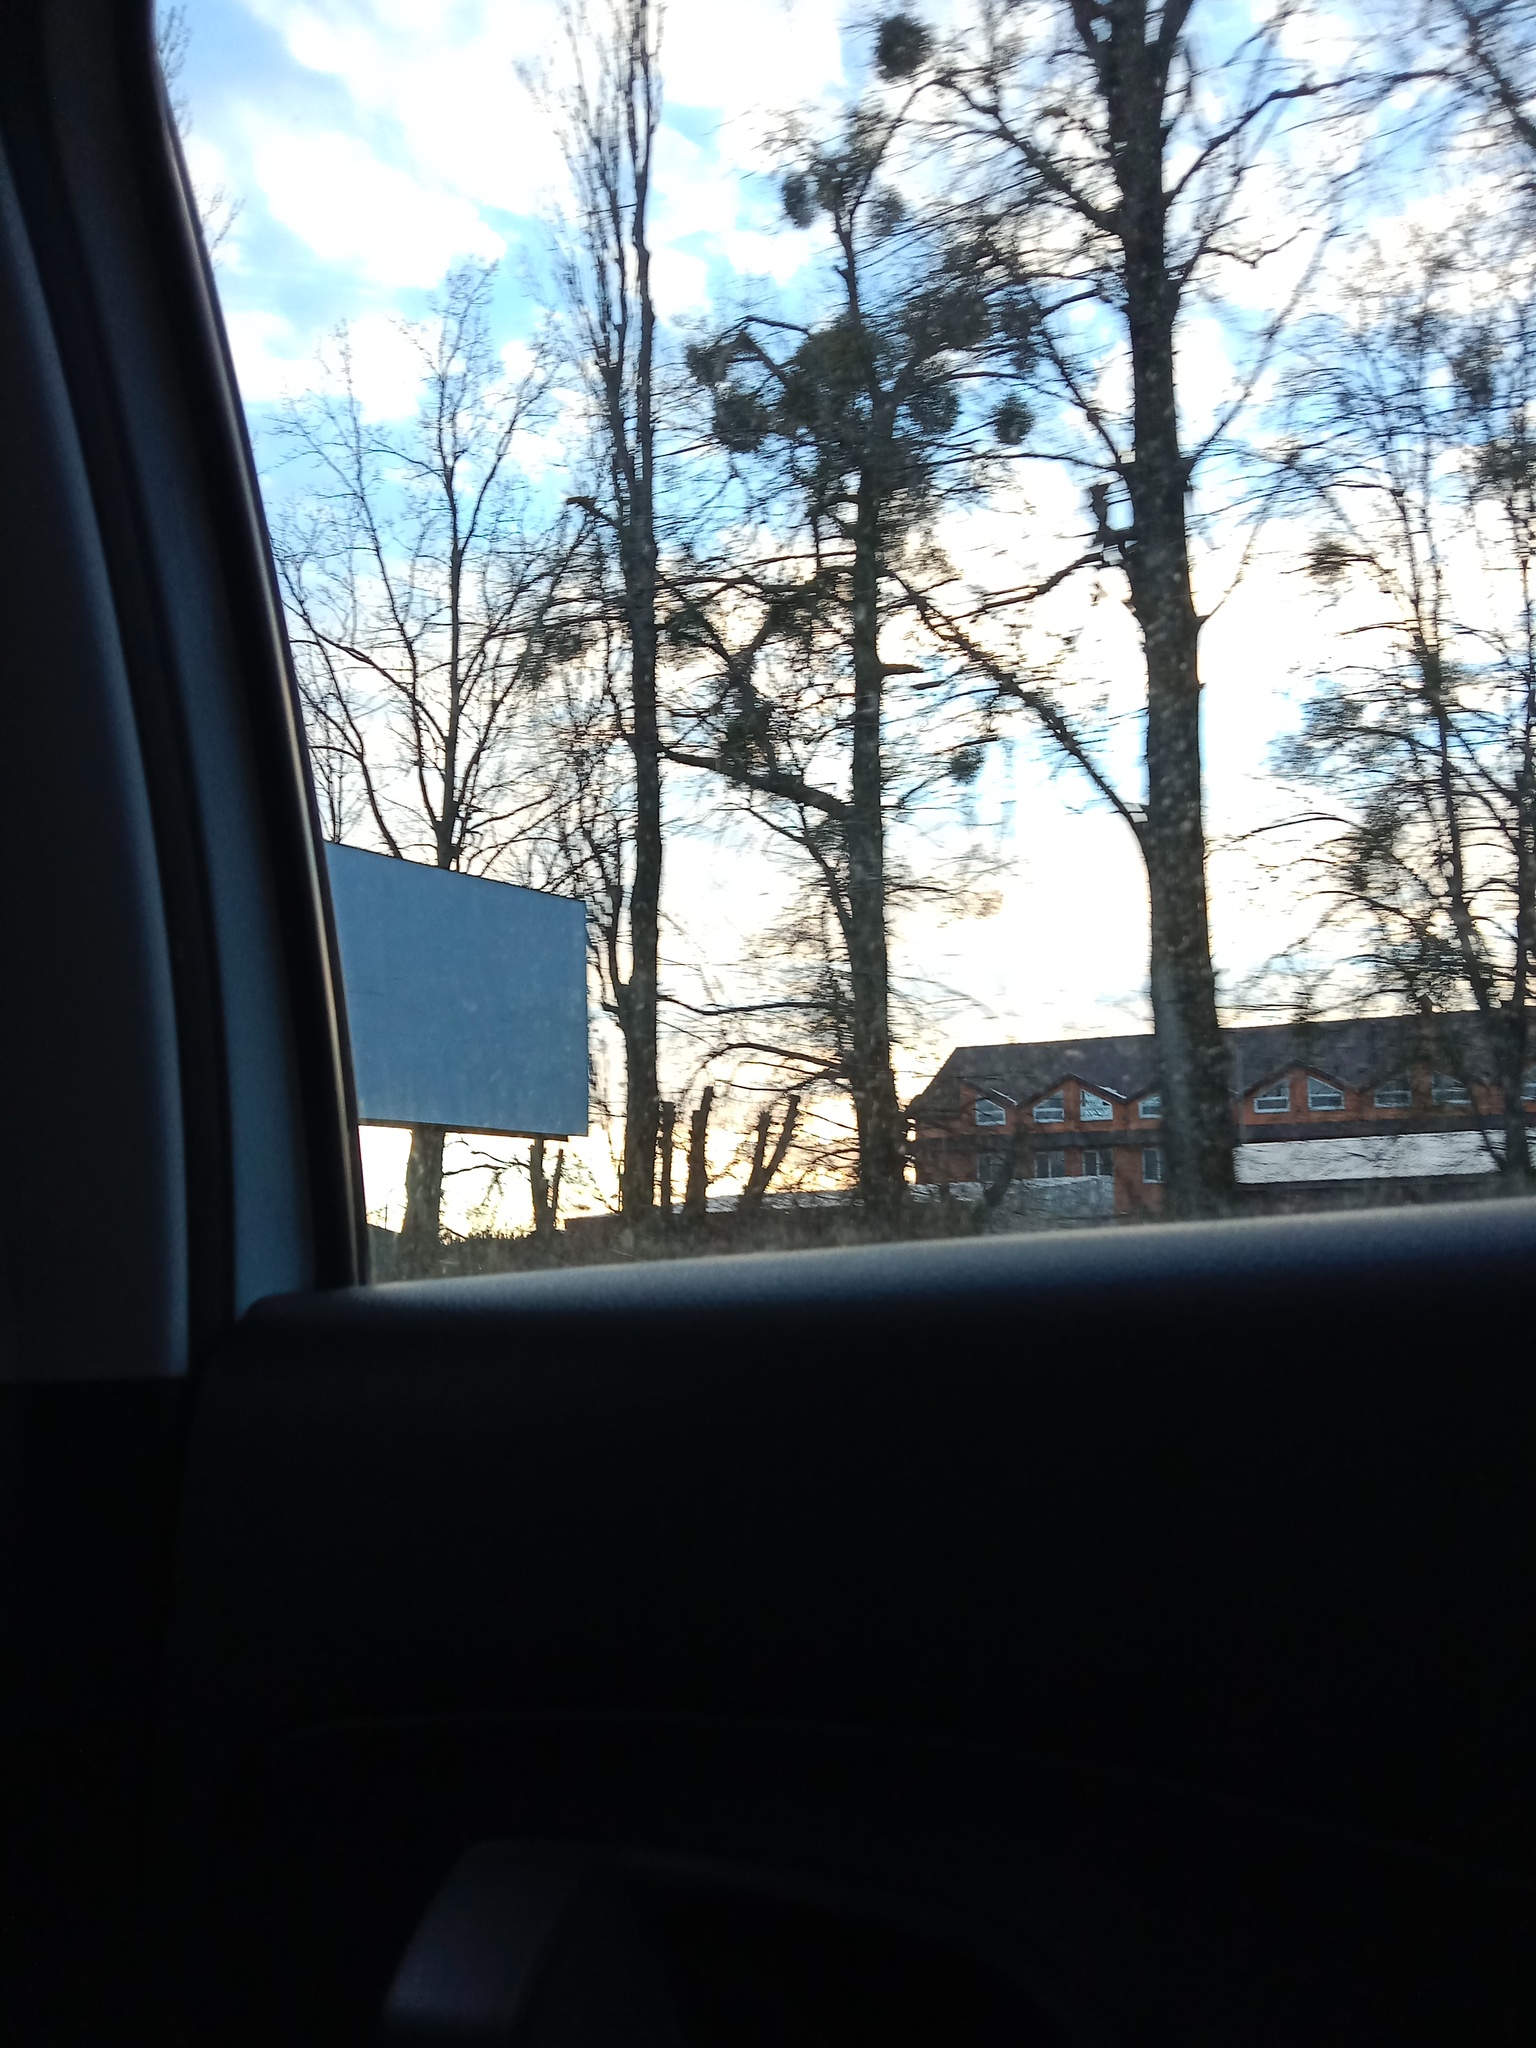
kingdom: Plantae
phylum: Tracheophyta
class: Magnoliopsida
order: Santalales
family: Viscaceae
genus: Viscum
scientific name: Viscum album
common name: Mistletoe
